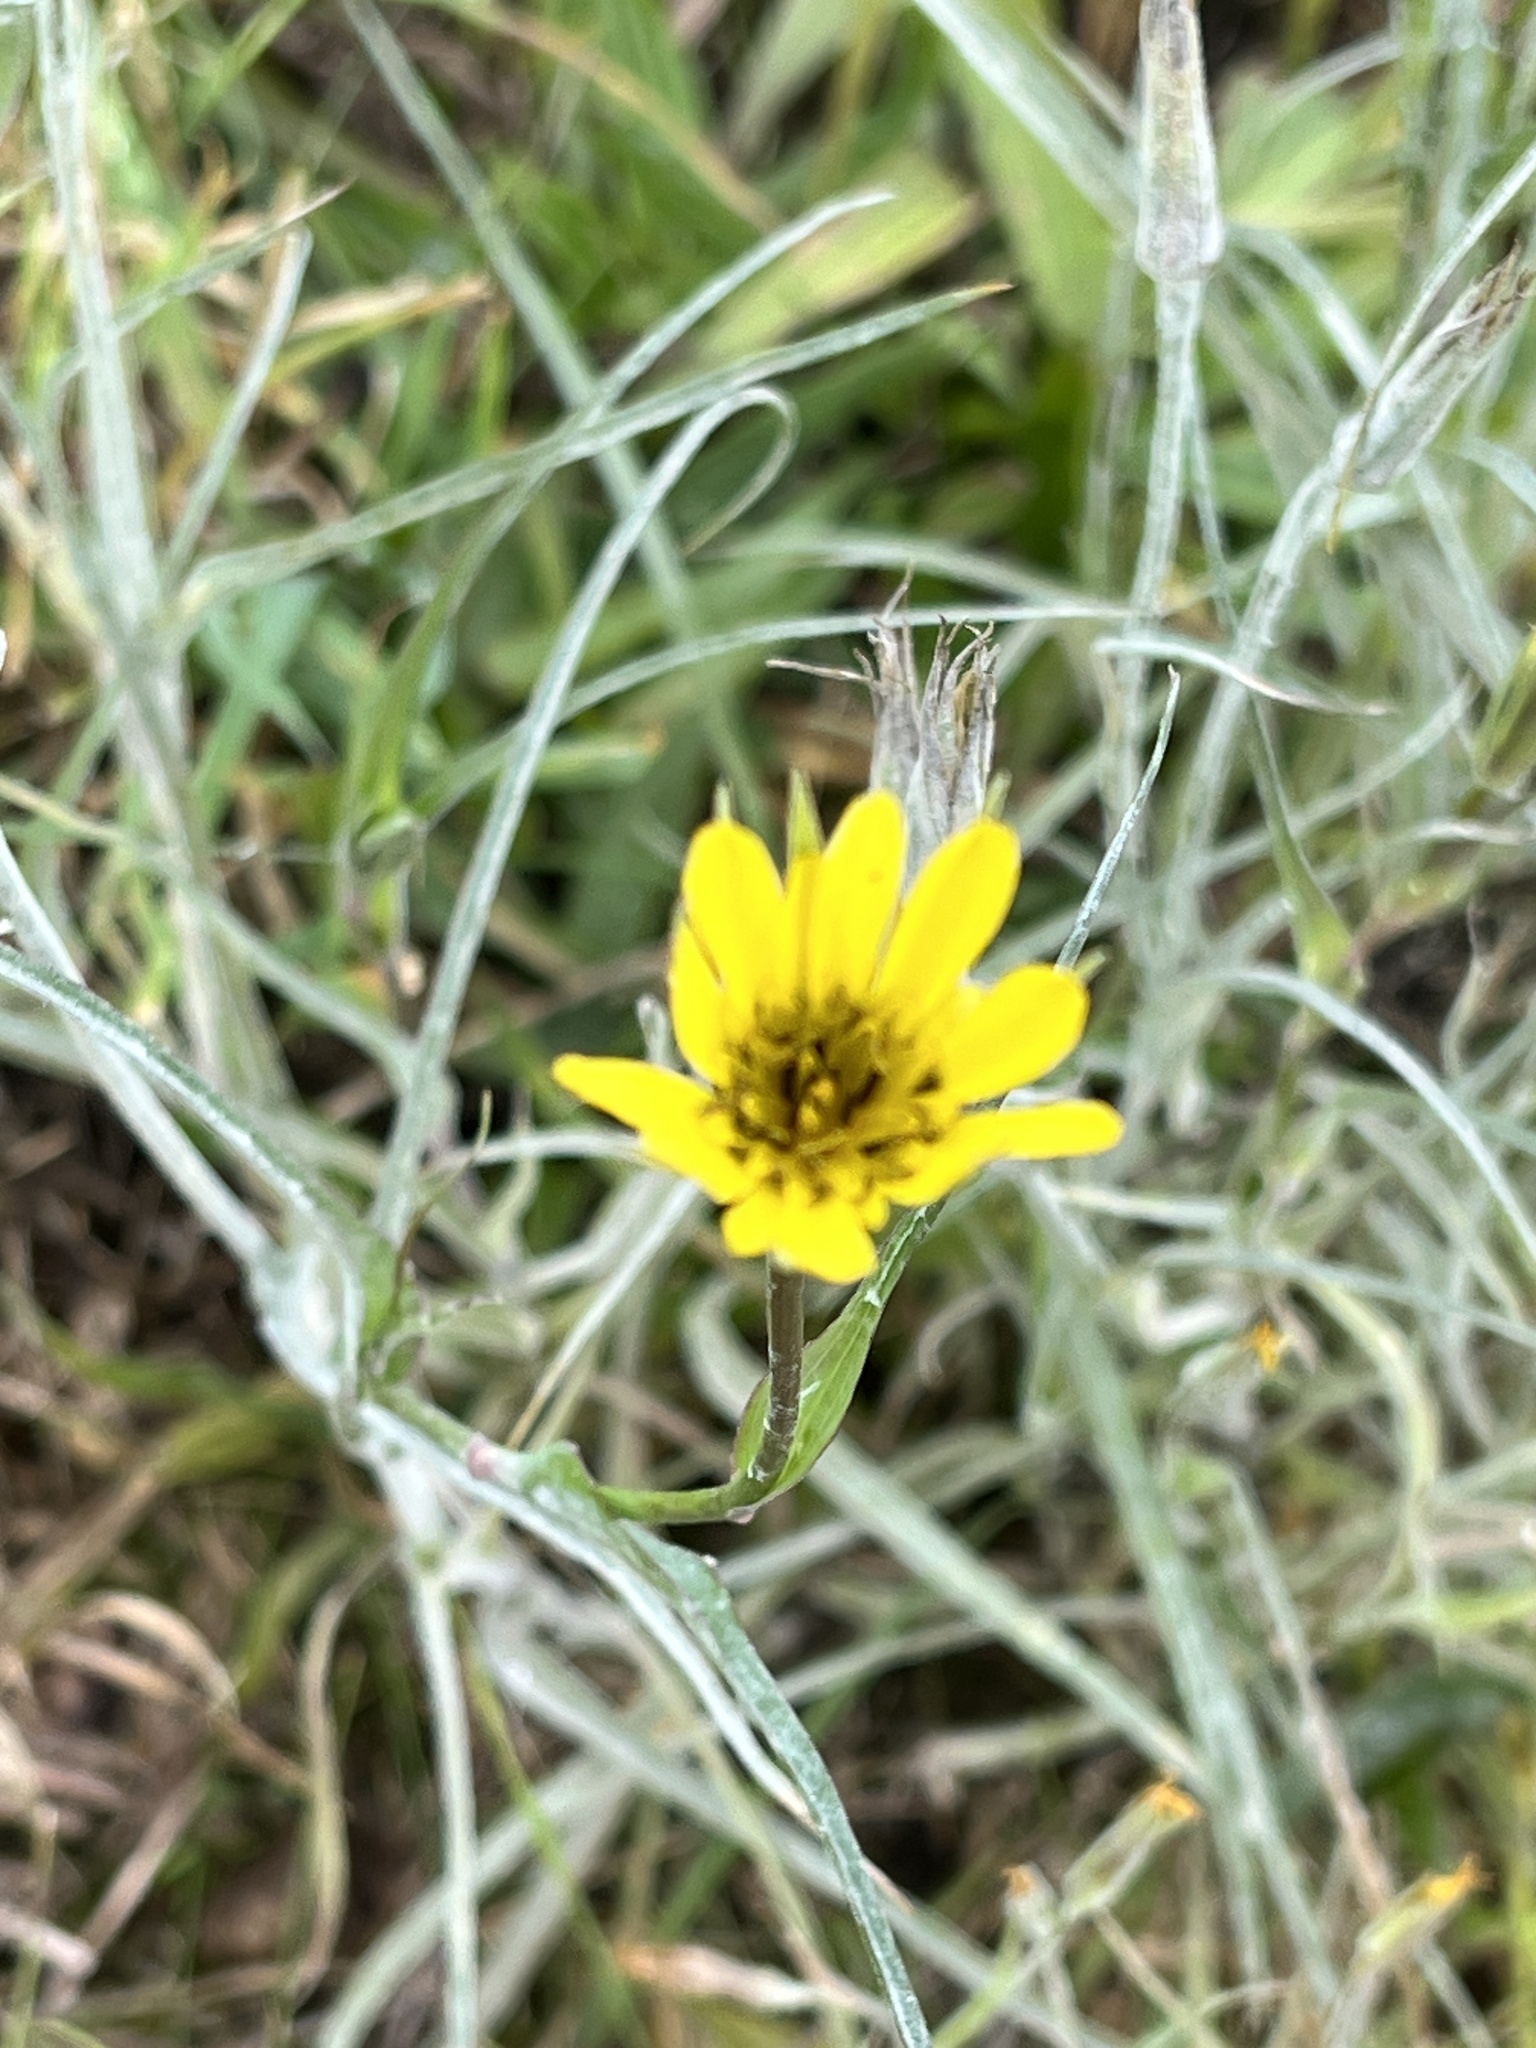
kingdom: Plantae
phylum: Tracheophyta
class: Magnoliopsida
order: Asterales
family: Asteraceae
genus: Tragopogon
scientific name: Tragopogon pratensis
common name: Goat's-beard
